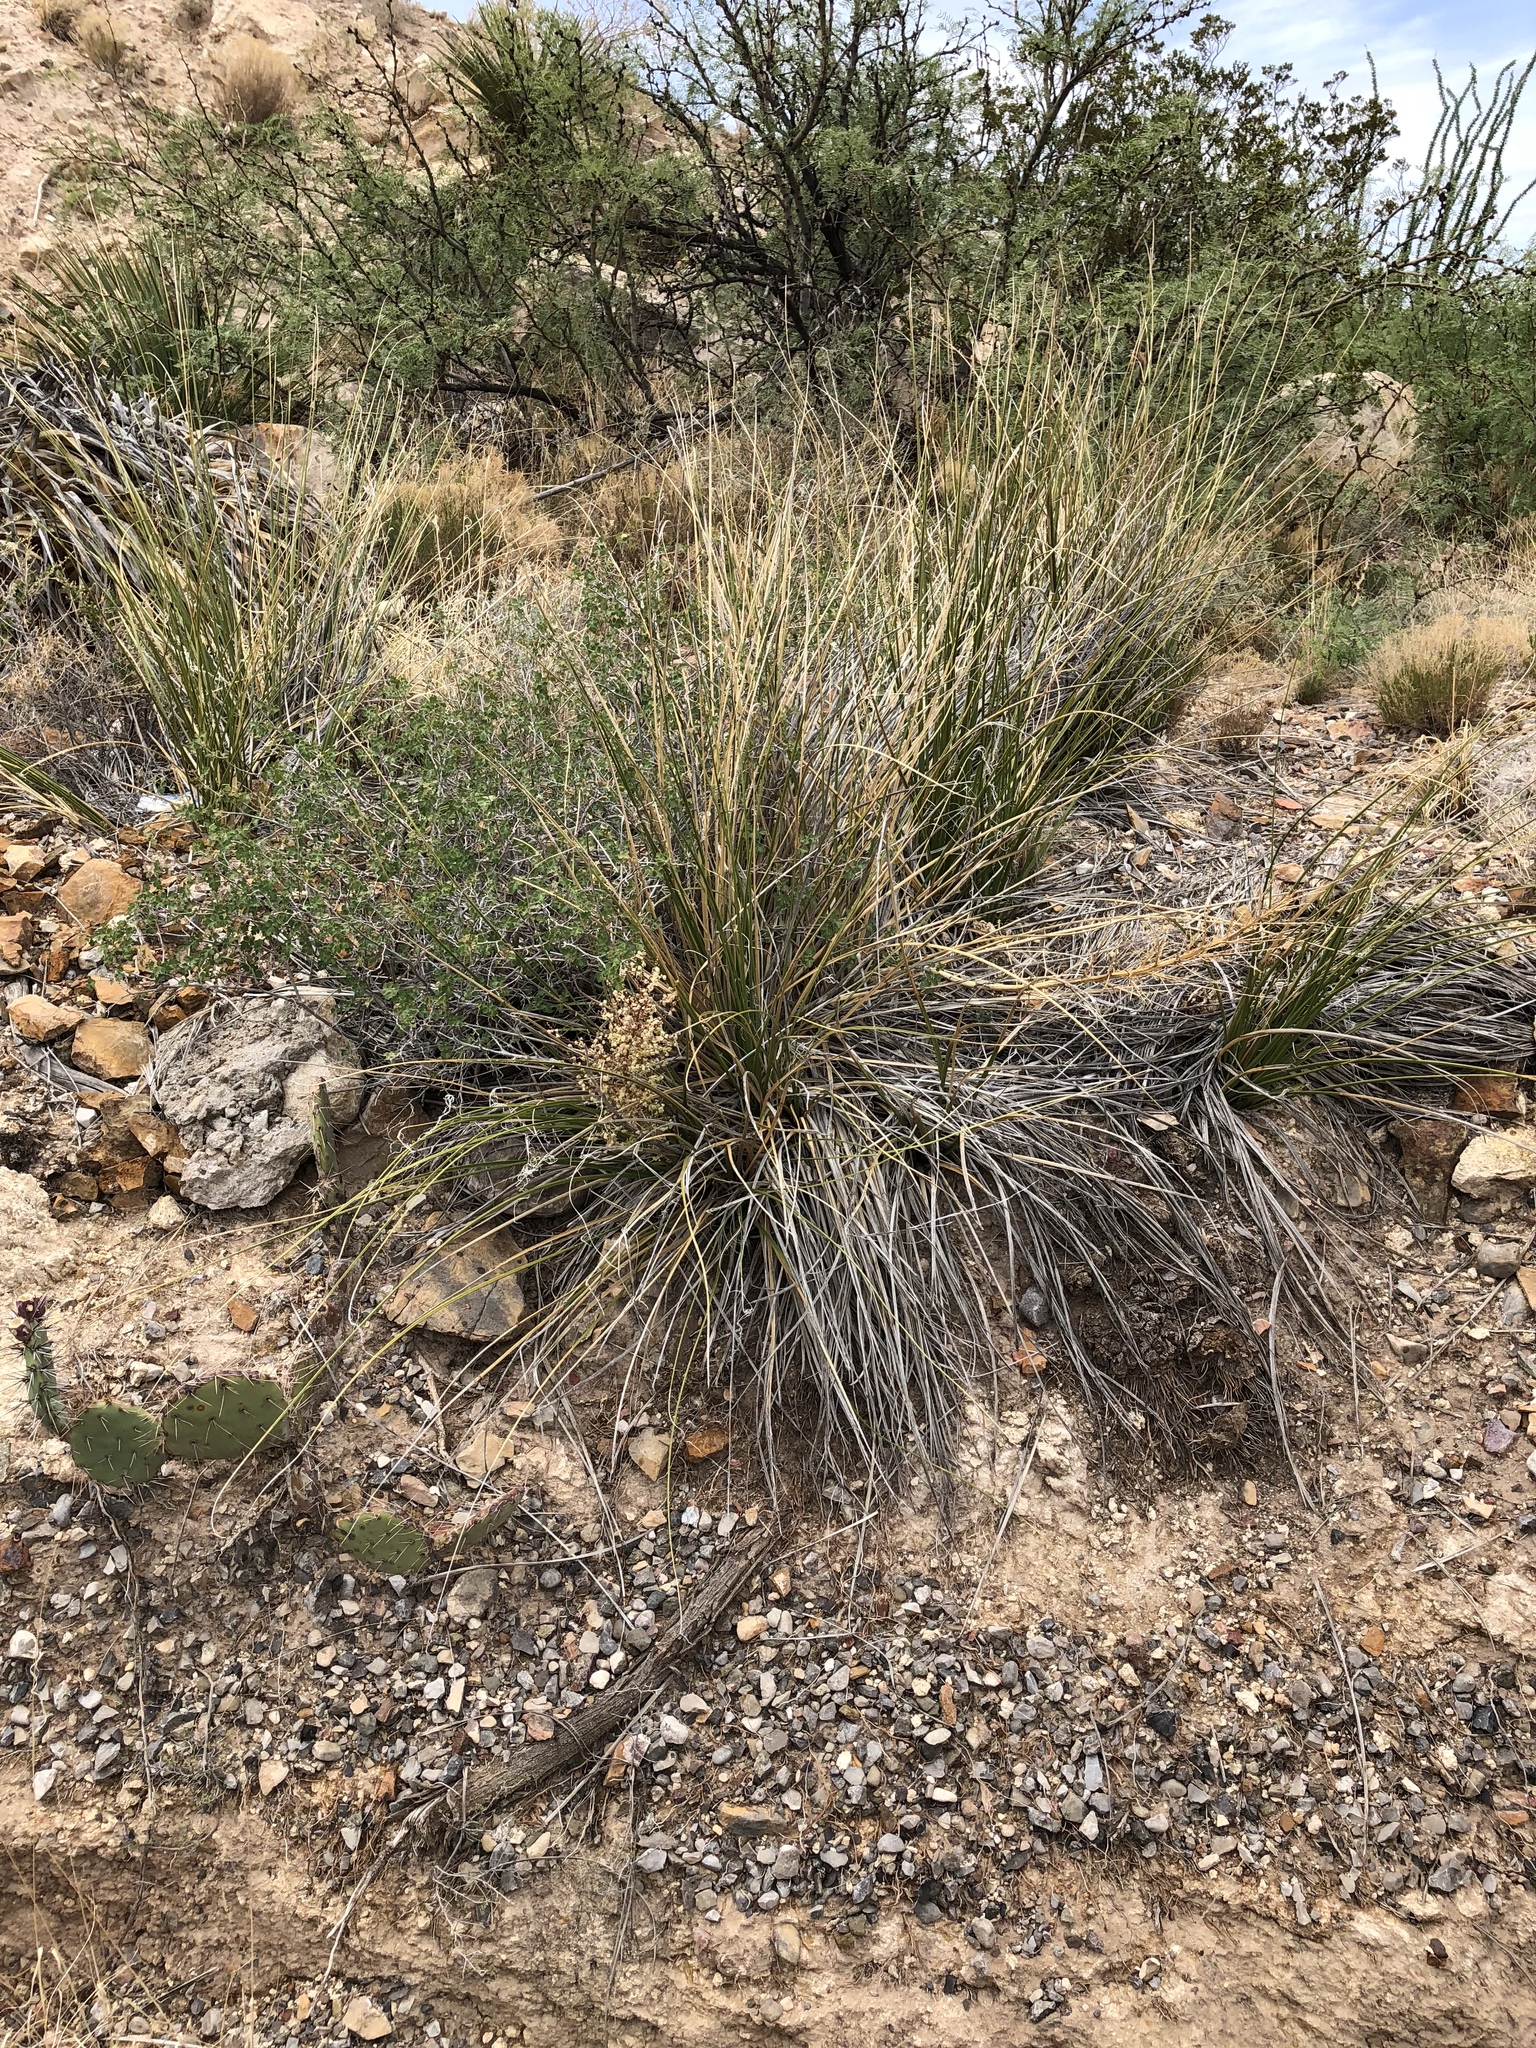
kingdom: Plantae
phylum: Tracheophyta
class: Liliopsida
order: Asparagales
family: Asparagaceae
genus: Nolina
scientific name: Nolina microcarpa
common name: Bear-grass
